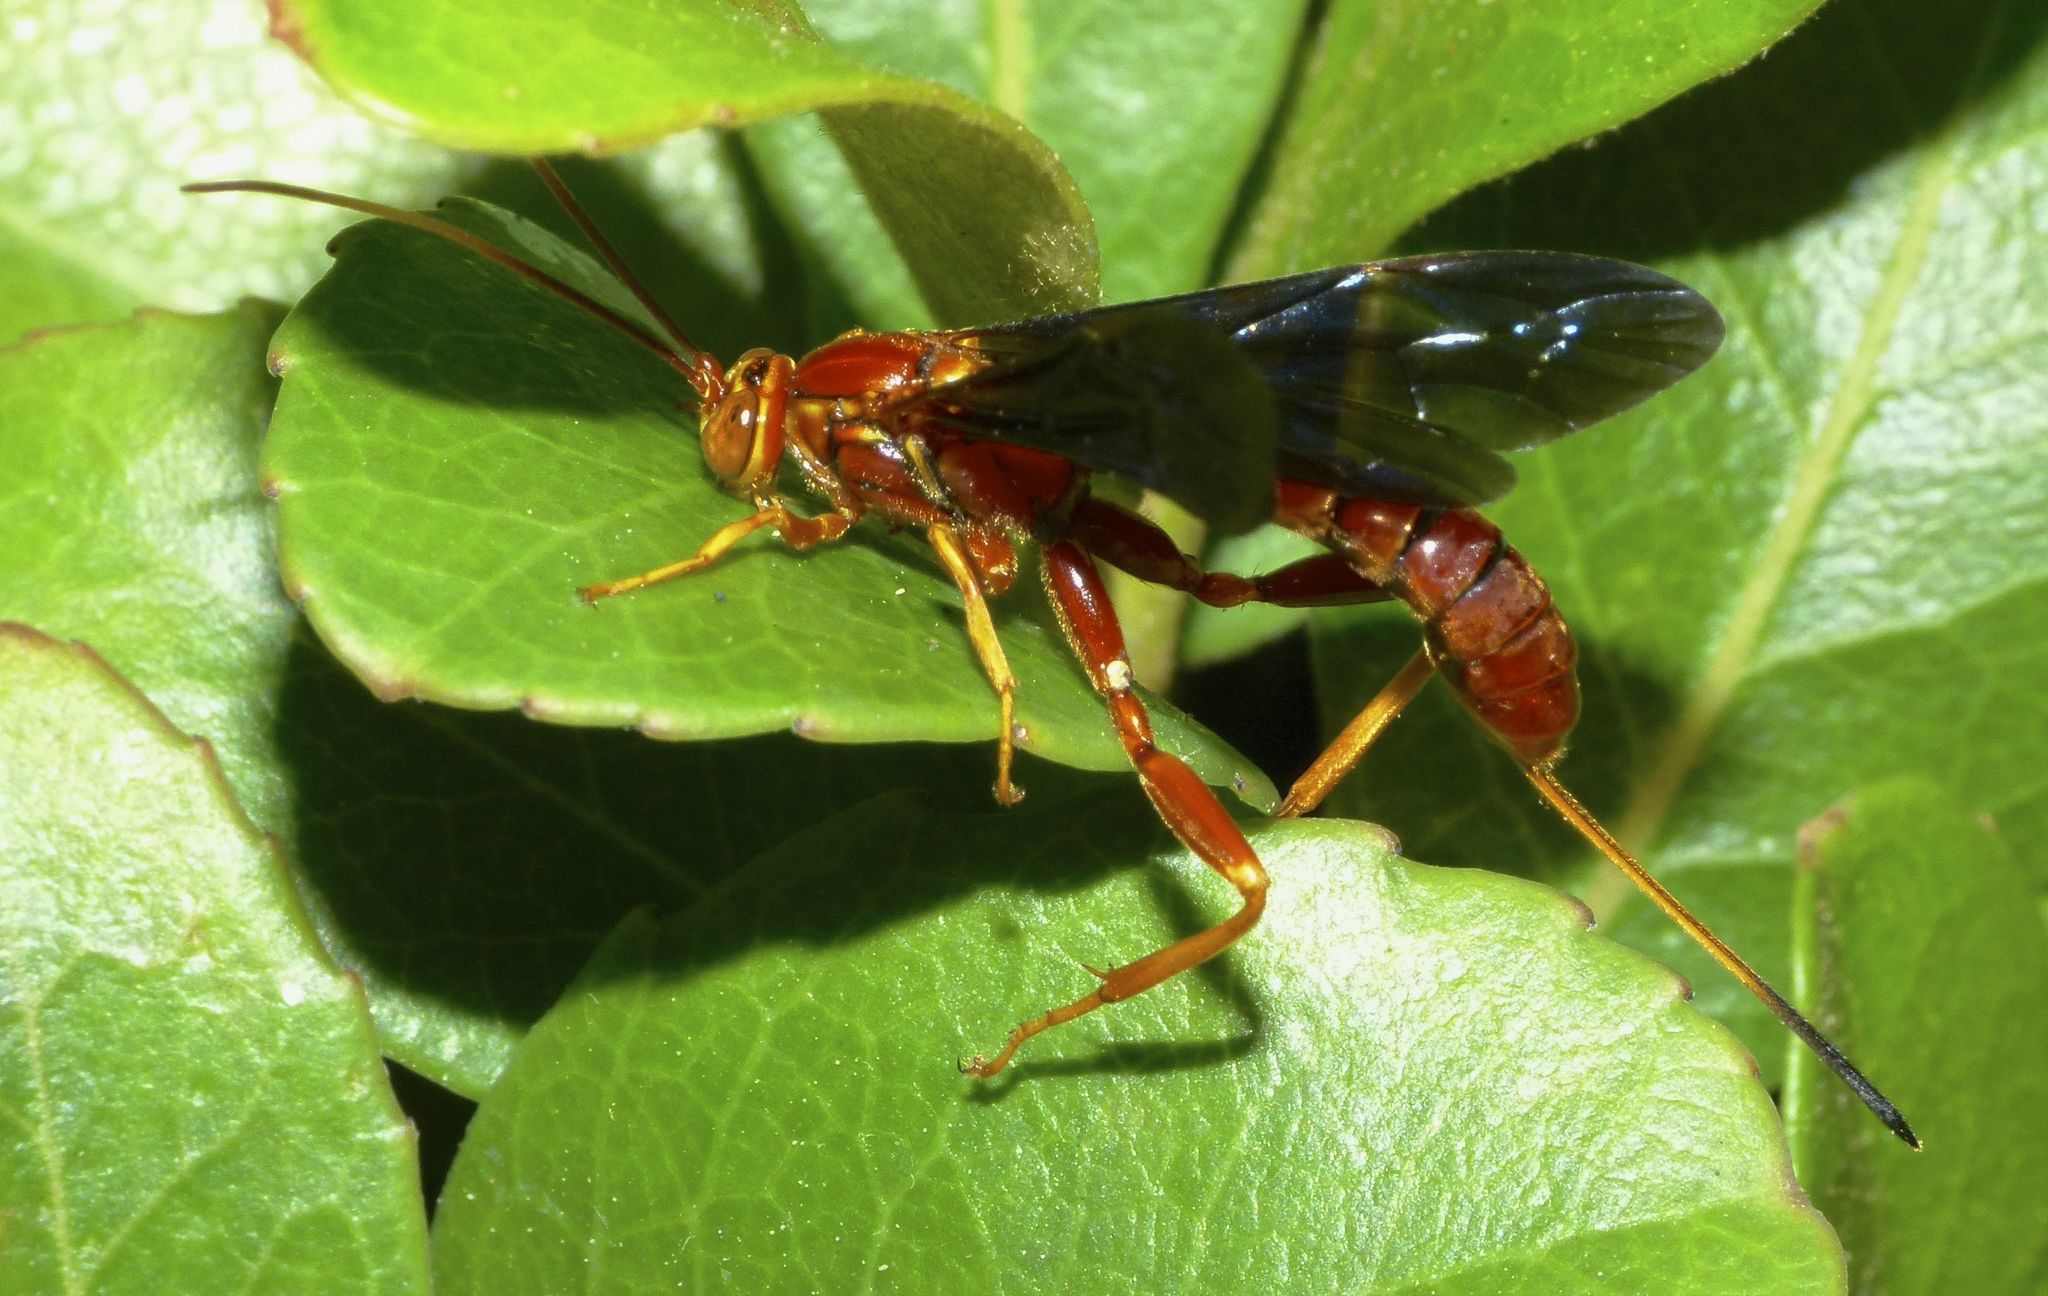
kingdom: Animalia
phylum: Arthropoda
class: Insecta
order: Hymenoptera
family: Ichneumonidae
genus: Labena
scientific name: Labena grallator
